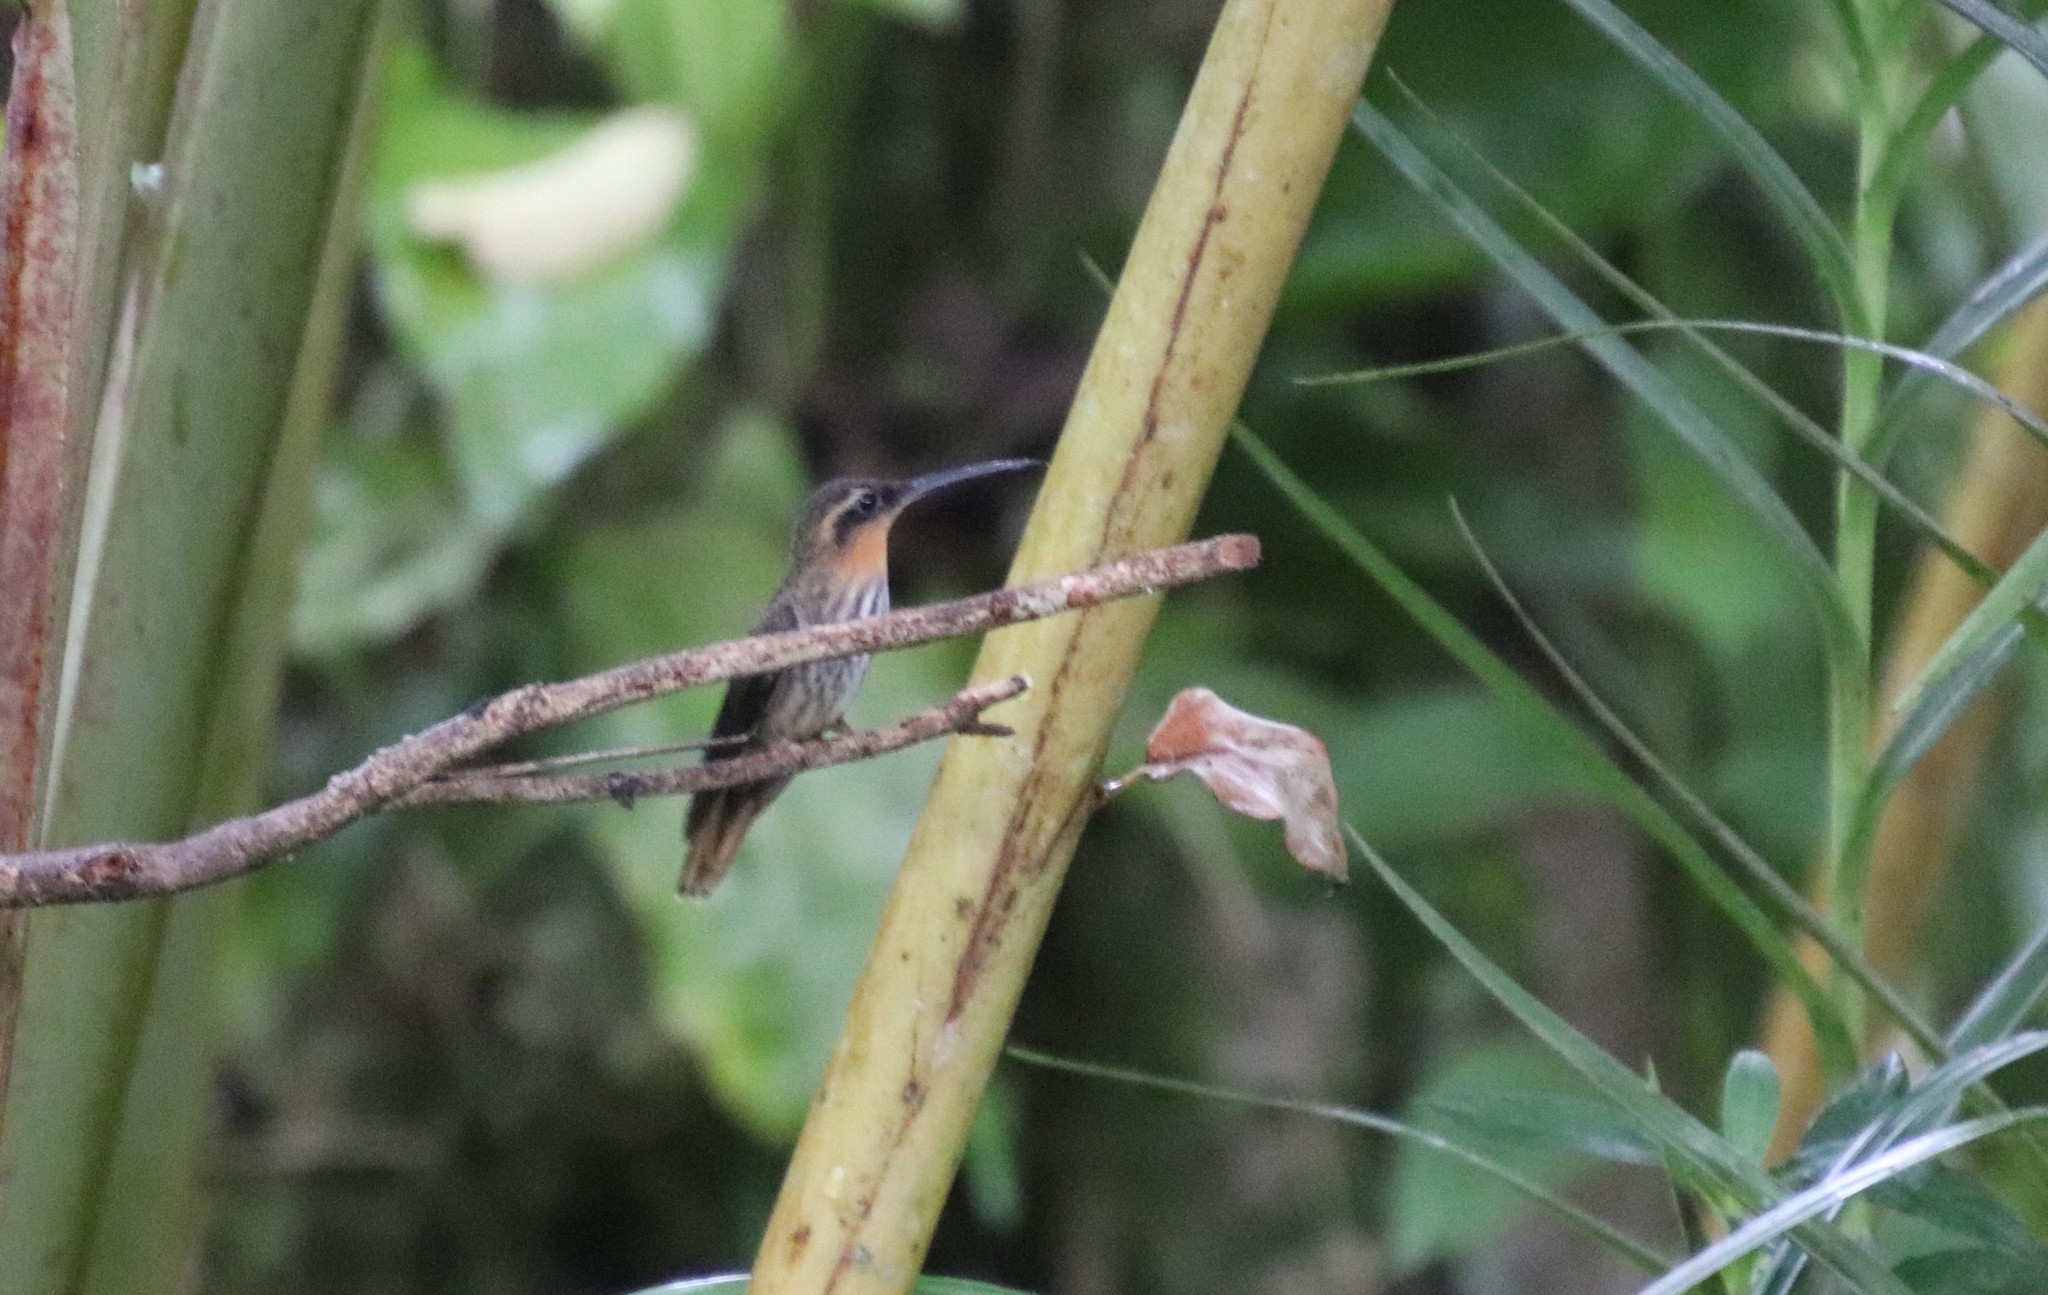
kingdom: Animalia
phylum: Chordata
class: Aves
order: Apodiformes
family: Trochilidae
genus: Ramphodon
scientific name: Ramphodon naevius
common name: Saw-billed hermit
